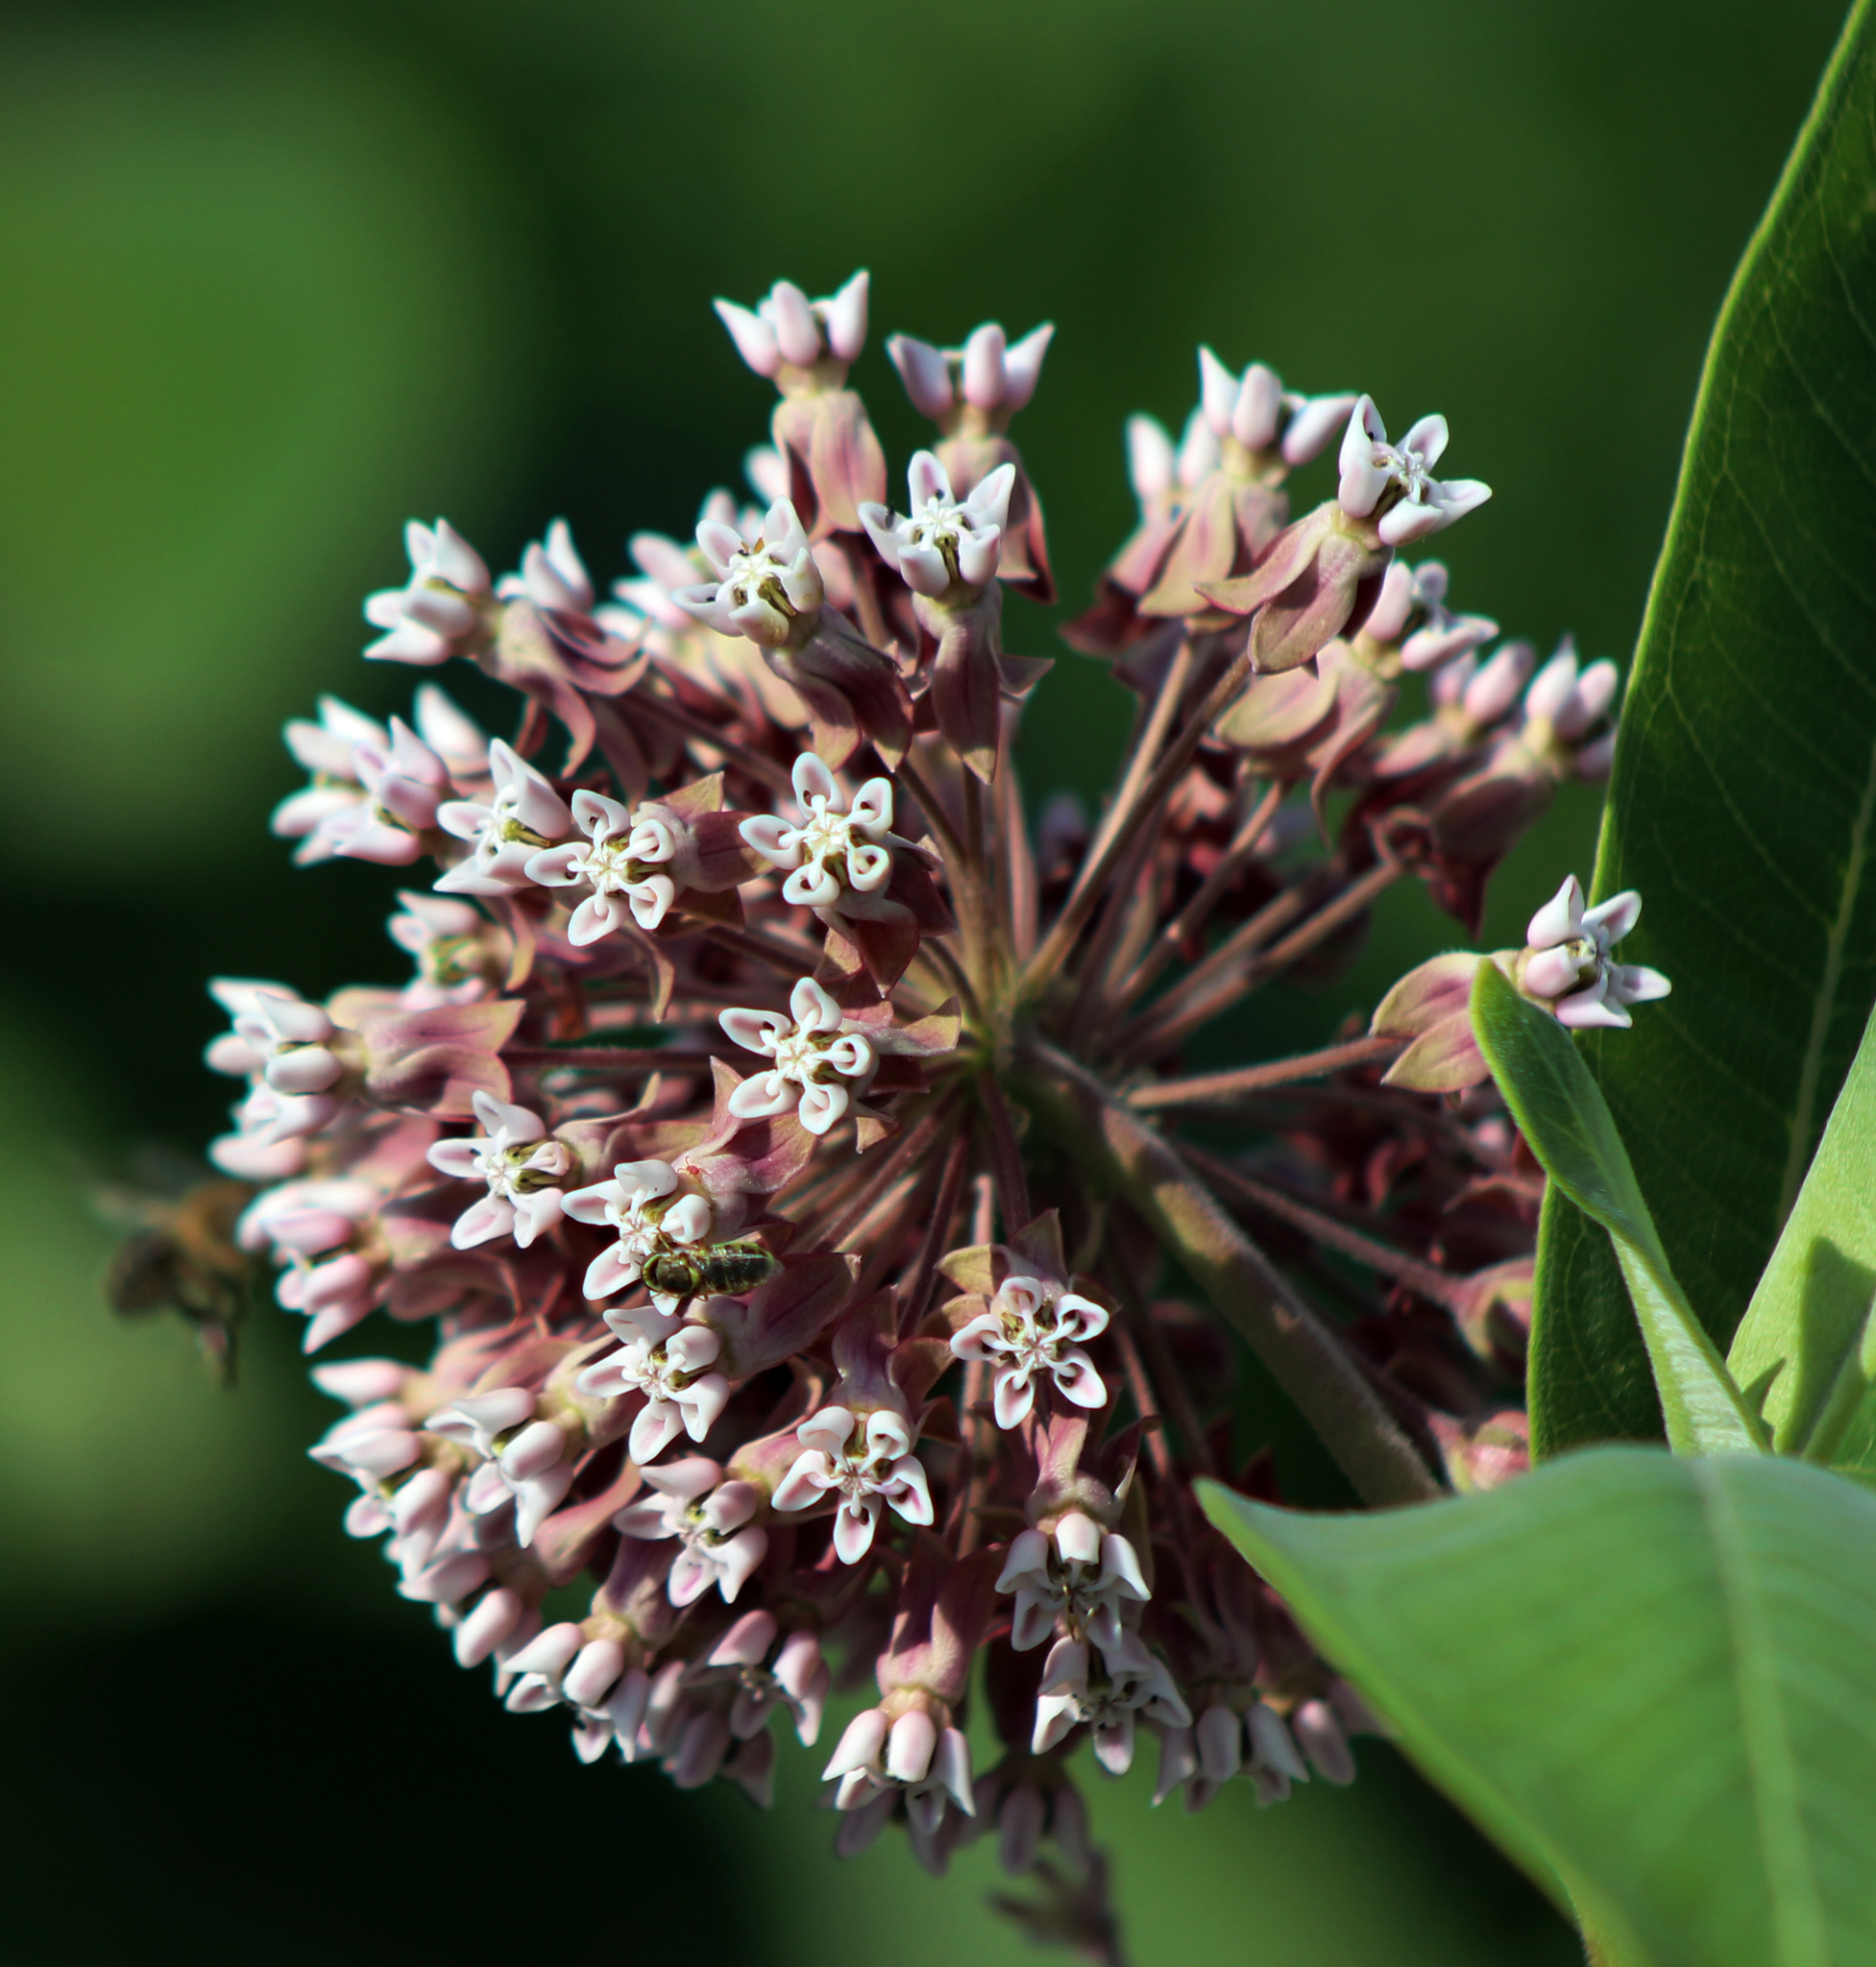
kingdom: Plantae
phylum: Tracheophyta
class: Magnoliopsida
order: Gentianales
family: Apocynaceae
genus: Asclepias
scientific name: Asclepias syriaca
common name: Common milkweed
